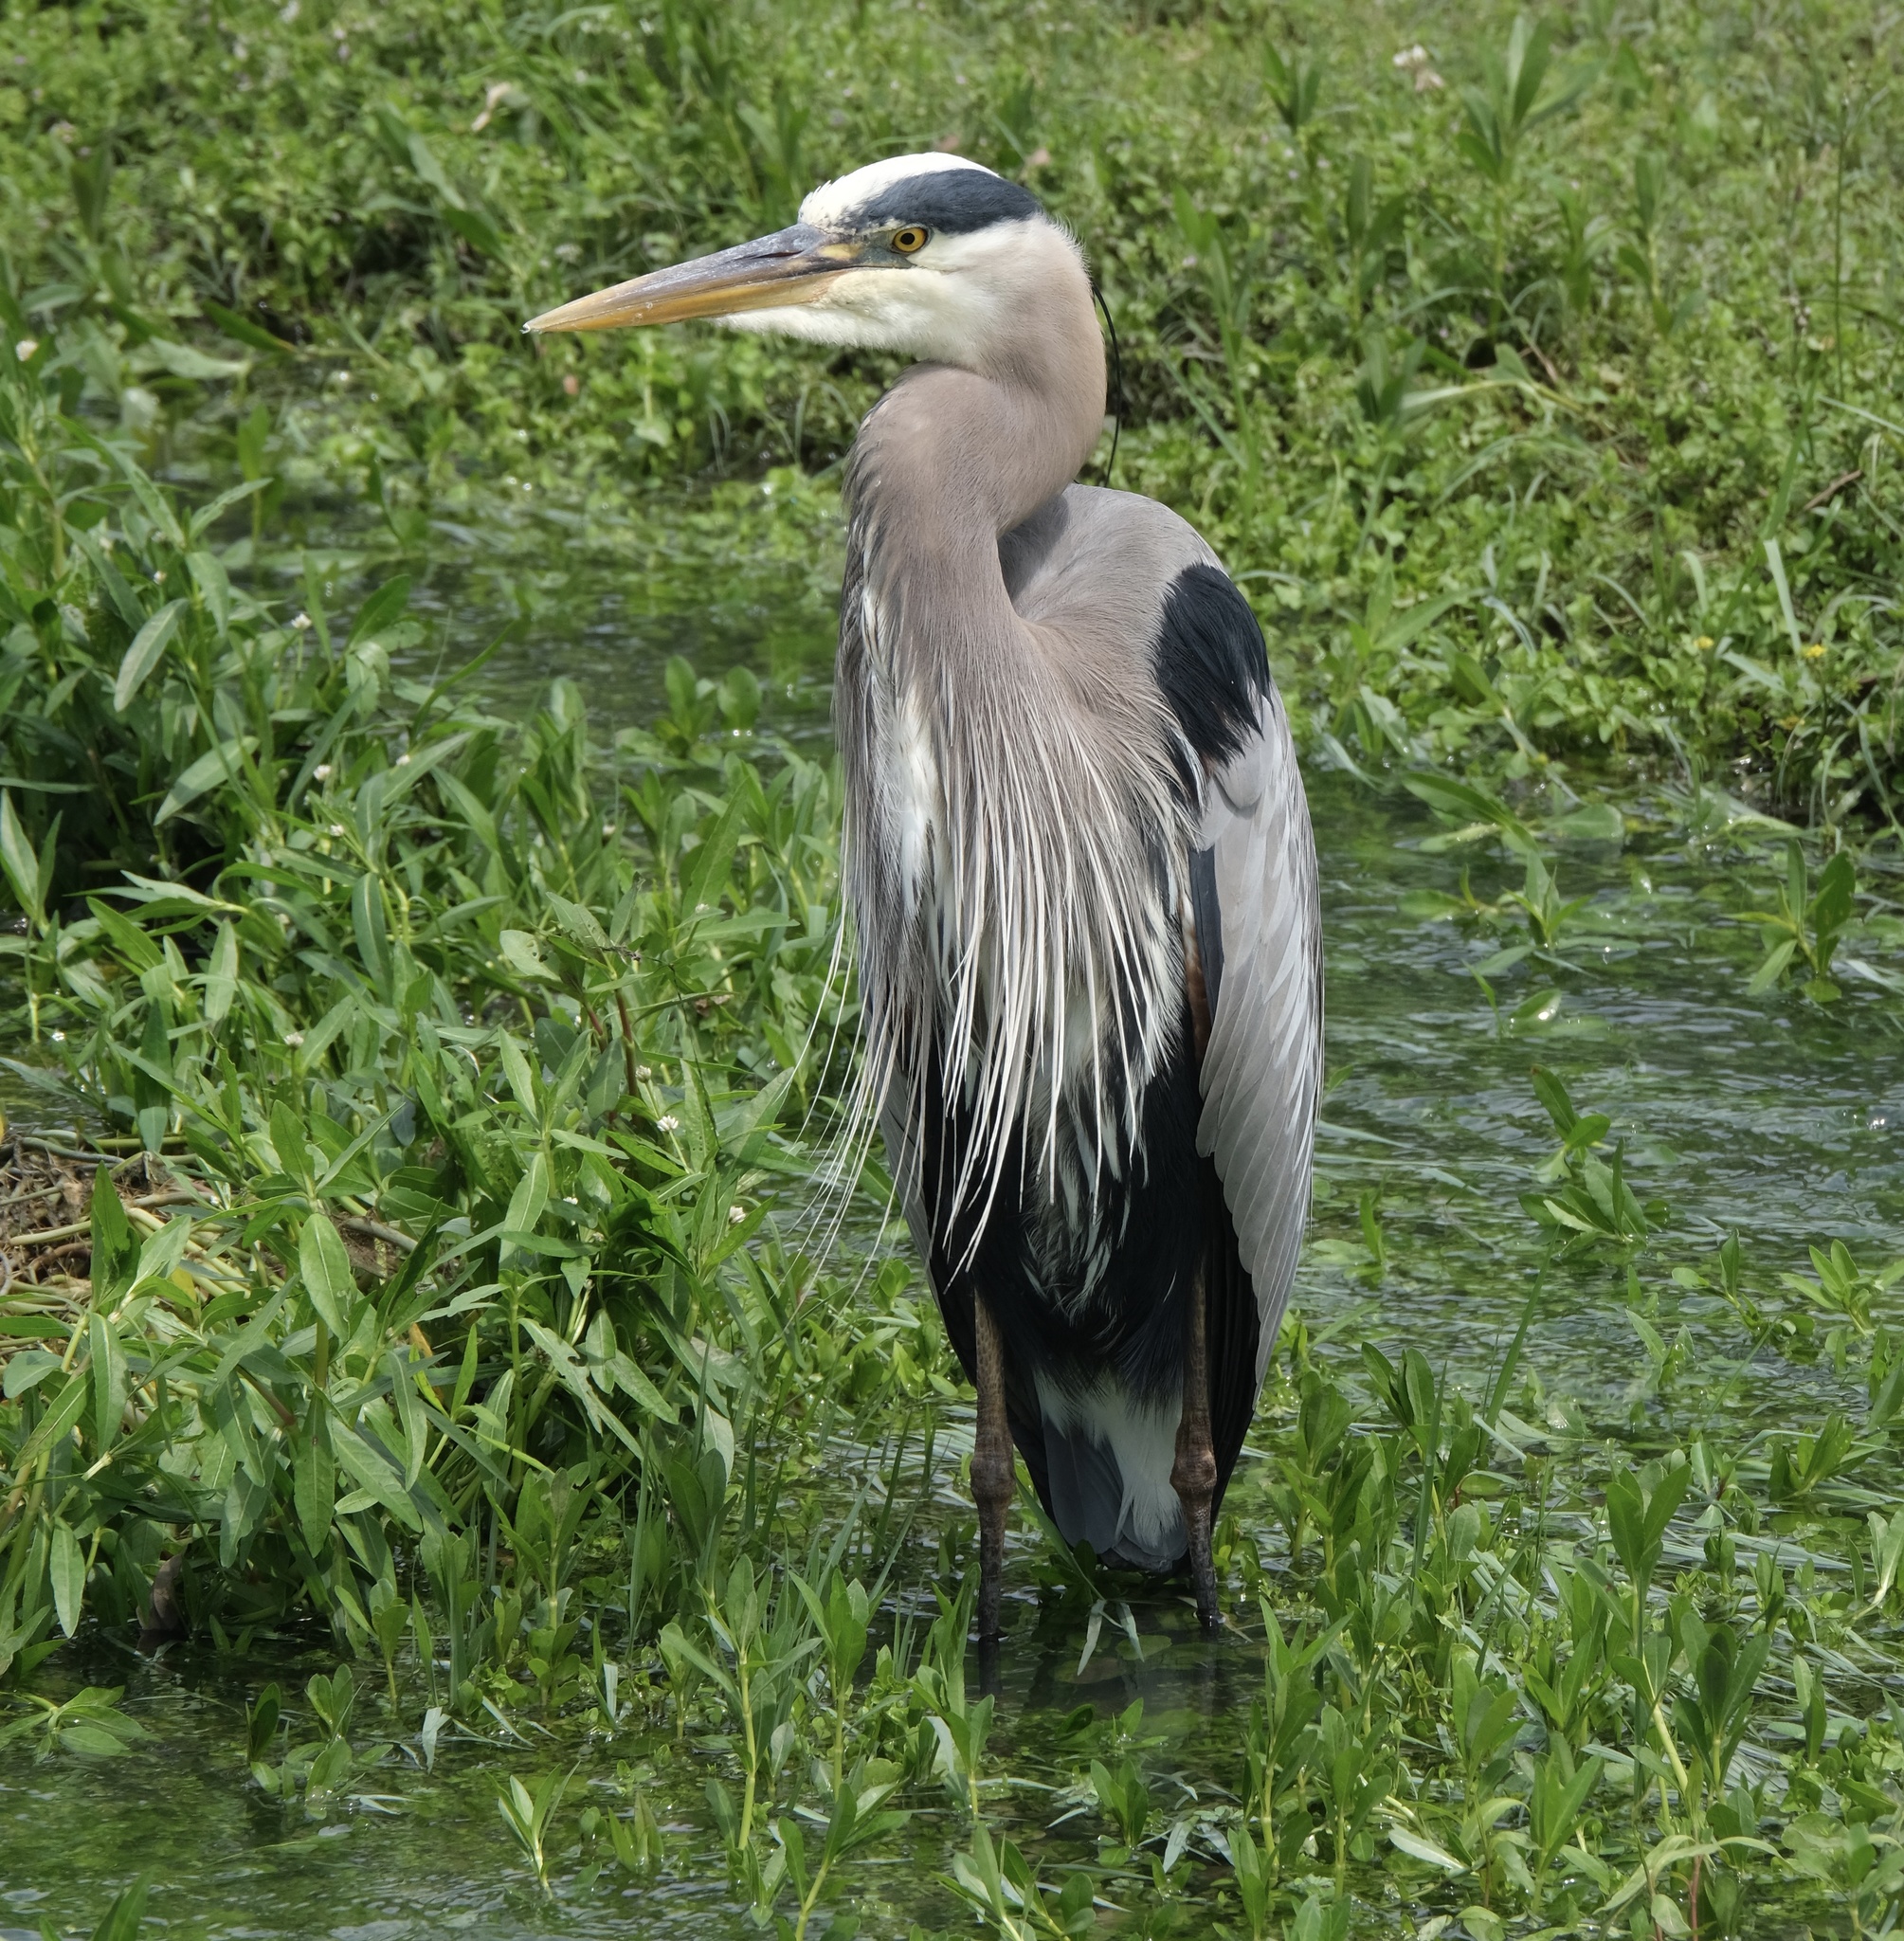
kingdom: Animalia
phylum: Chordata
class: Aves
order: Pelecaniformes
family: Ardeidae
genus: Ardea
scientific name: Ardea herodias
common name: Great blue heron
